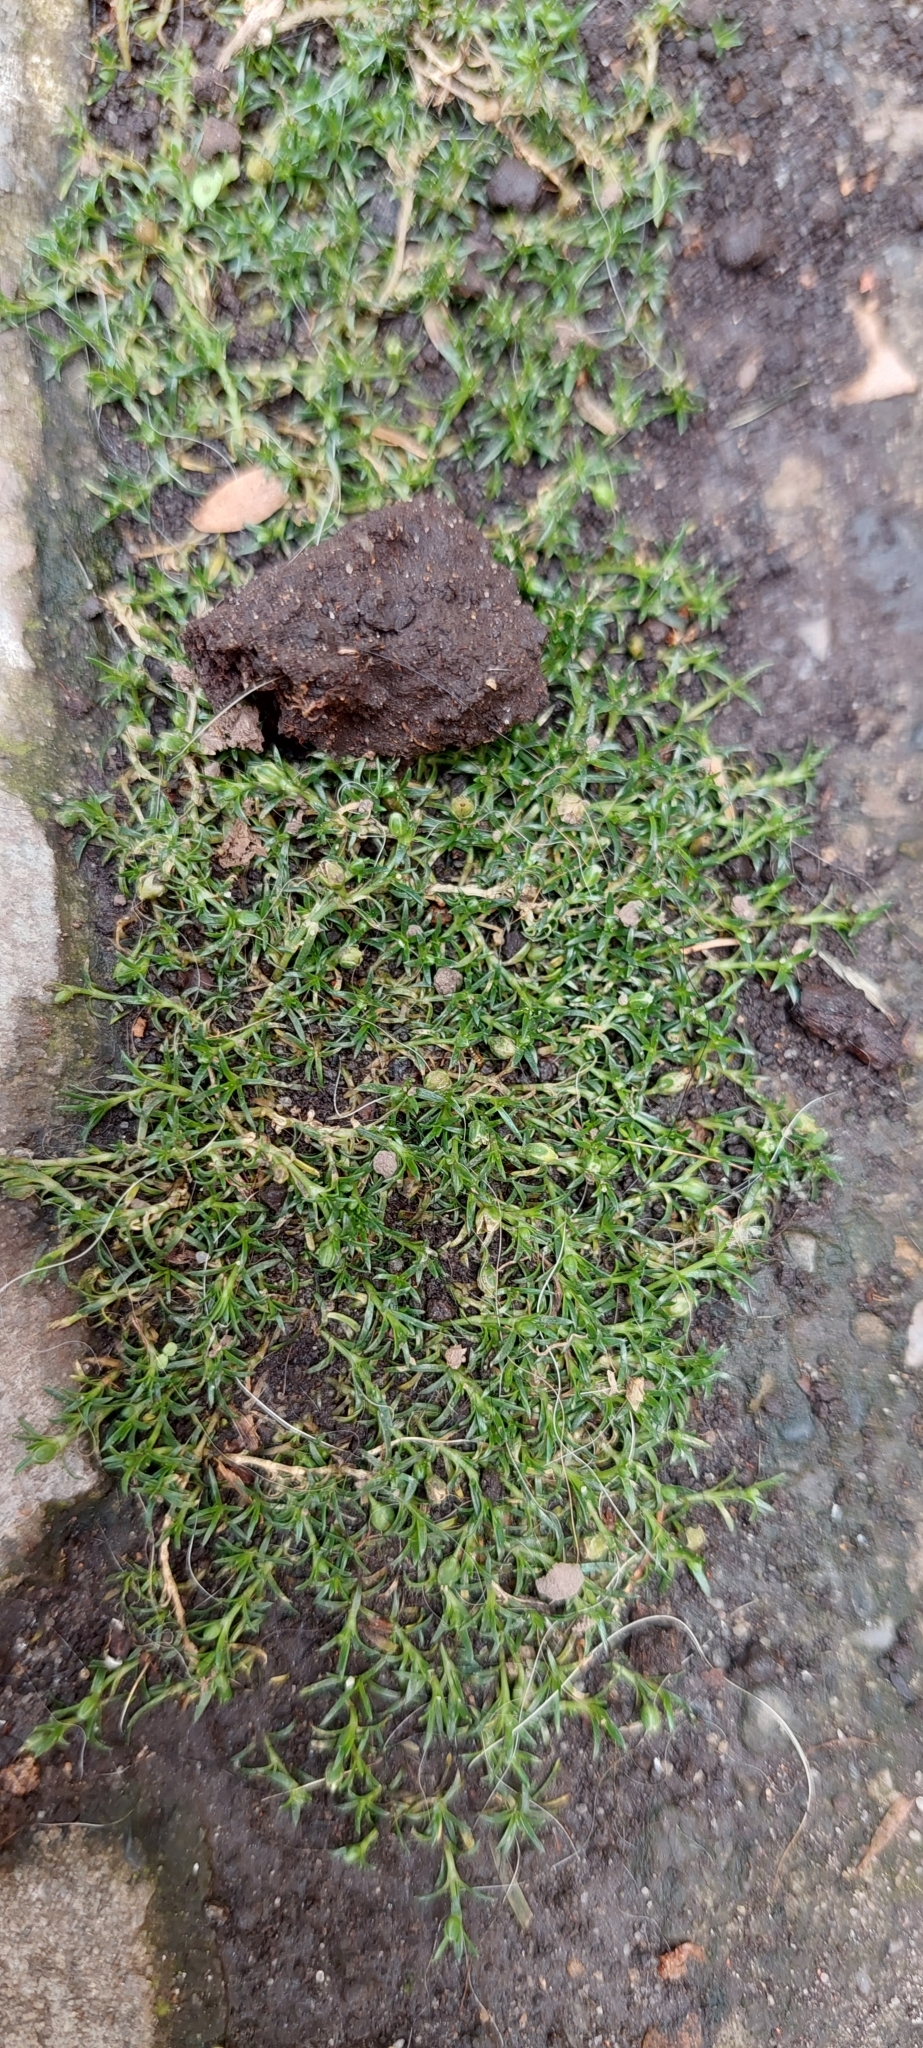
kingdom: Plantae
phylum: Tracheophyta
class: Magnoliopsida
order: Caryophyllales
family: Caryophyllaceae
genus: Sagina
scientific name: Sagina procumbens
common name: Procumbent pearlwort
